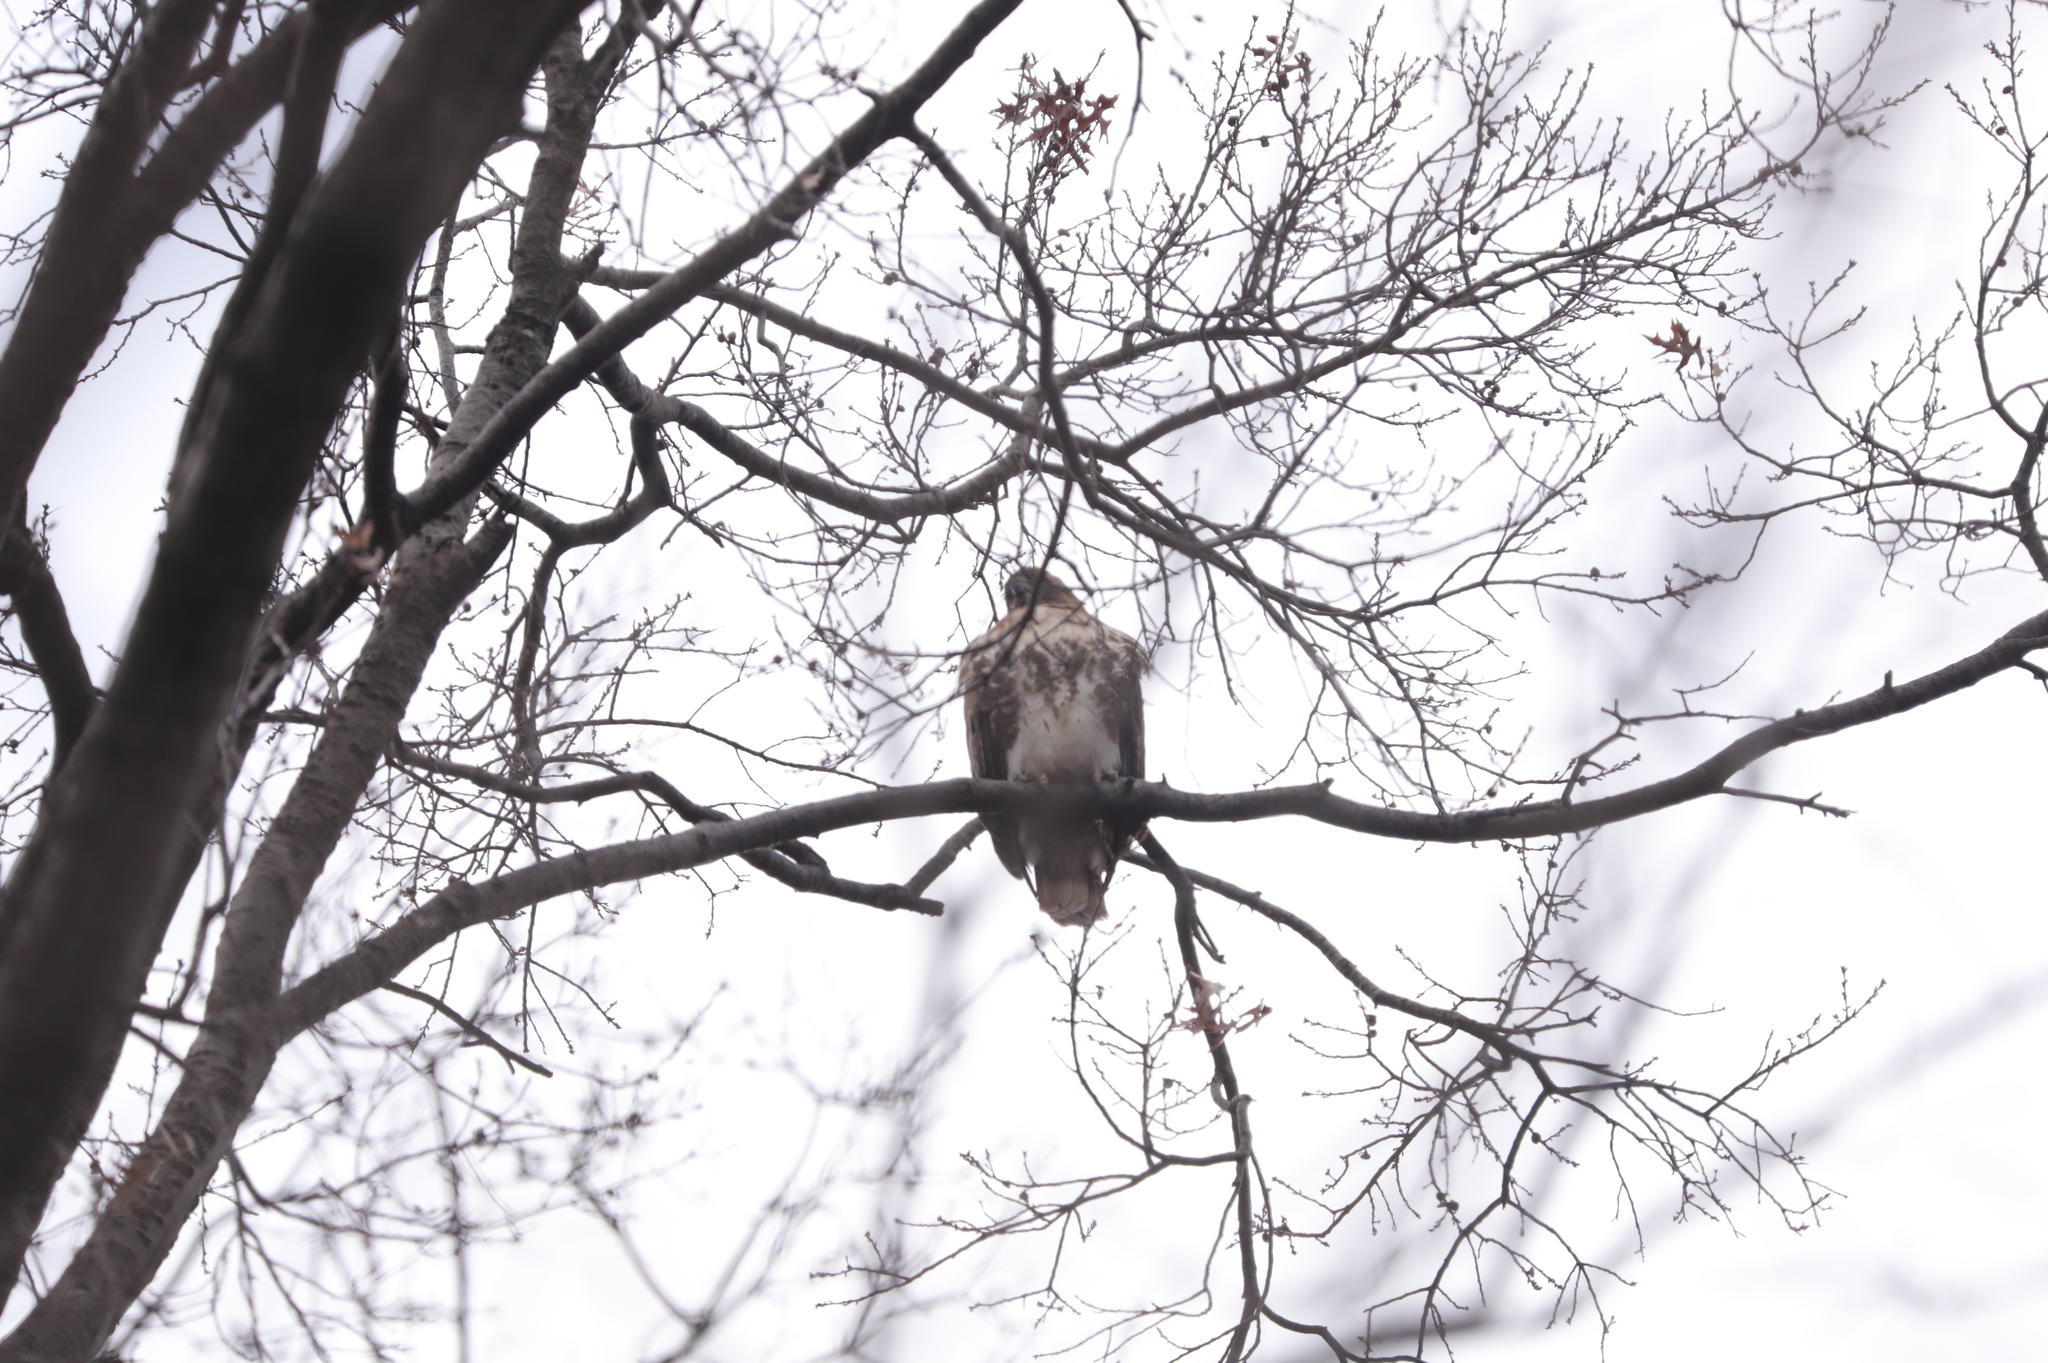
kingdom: Animalia
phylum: Chordata
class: Aves
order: Accipitriformes
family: Accipitridae
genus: Buteo
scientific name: Buteo jamaicensis
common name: Red-tailed hawk
